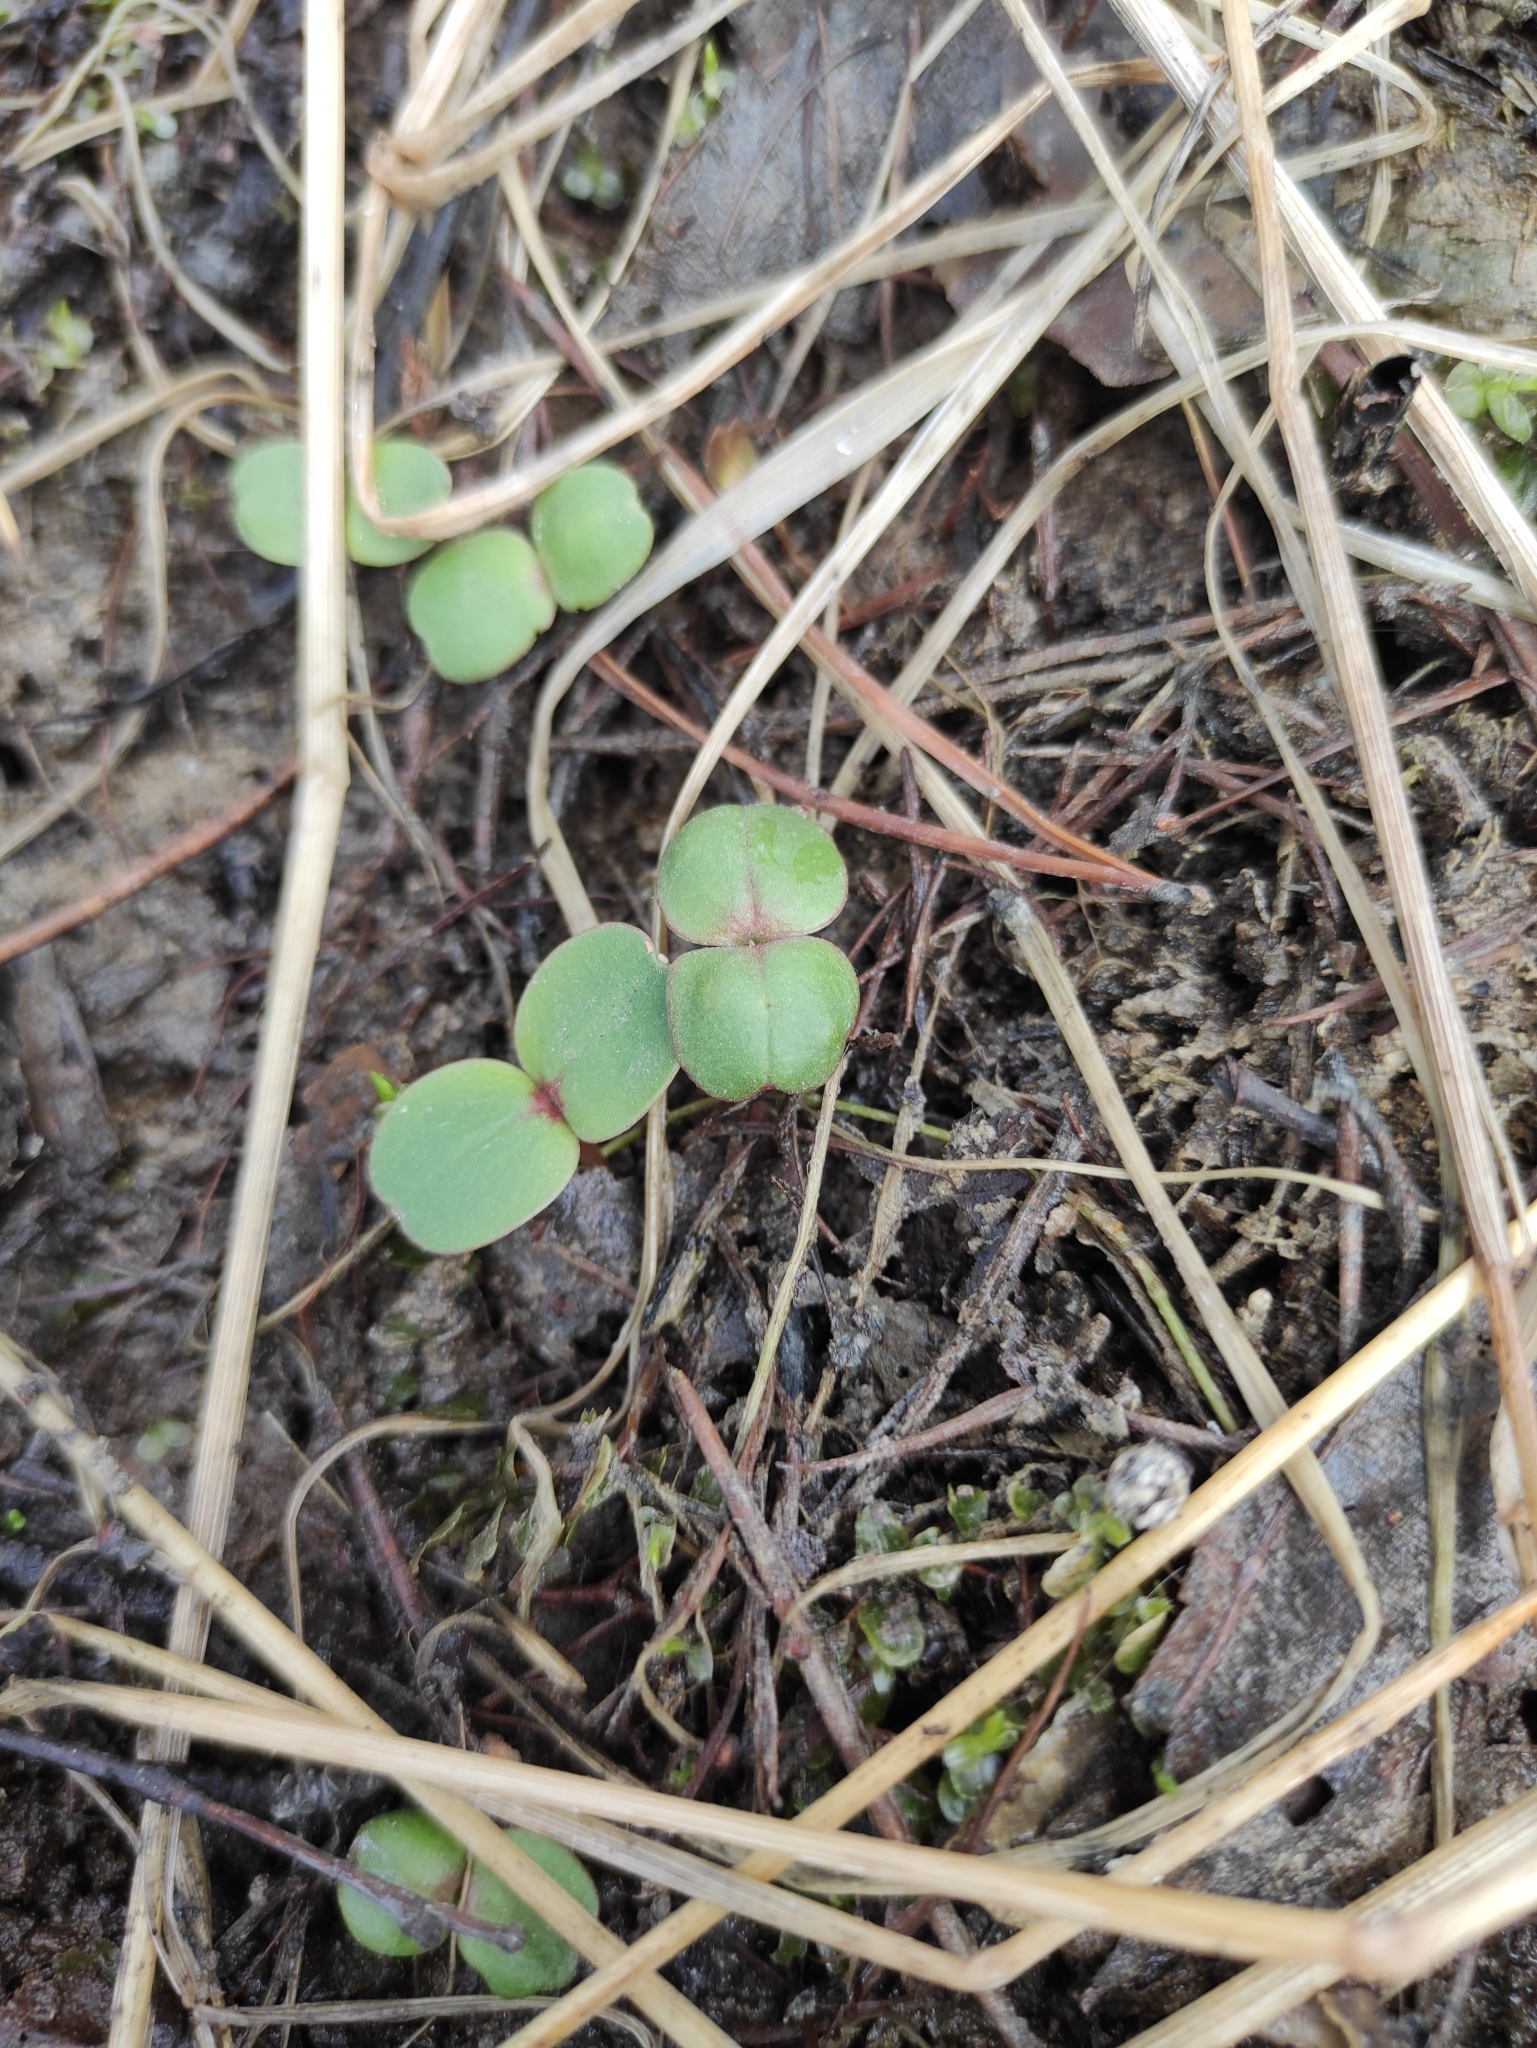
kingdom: Plantae
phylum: Tracheophyta
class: Magnoliopsida
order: Ericales
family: Balsaminaceae
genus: Impatiens
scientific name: Impatiens glandulifera
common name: Himalayan balsam
